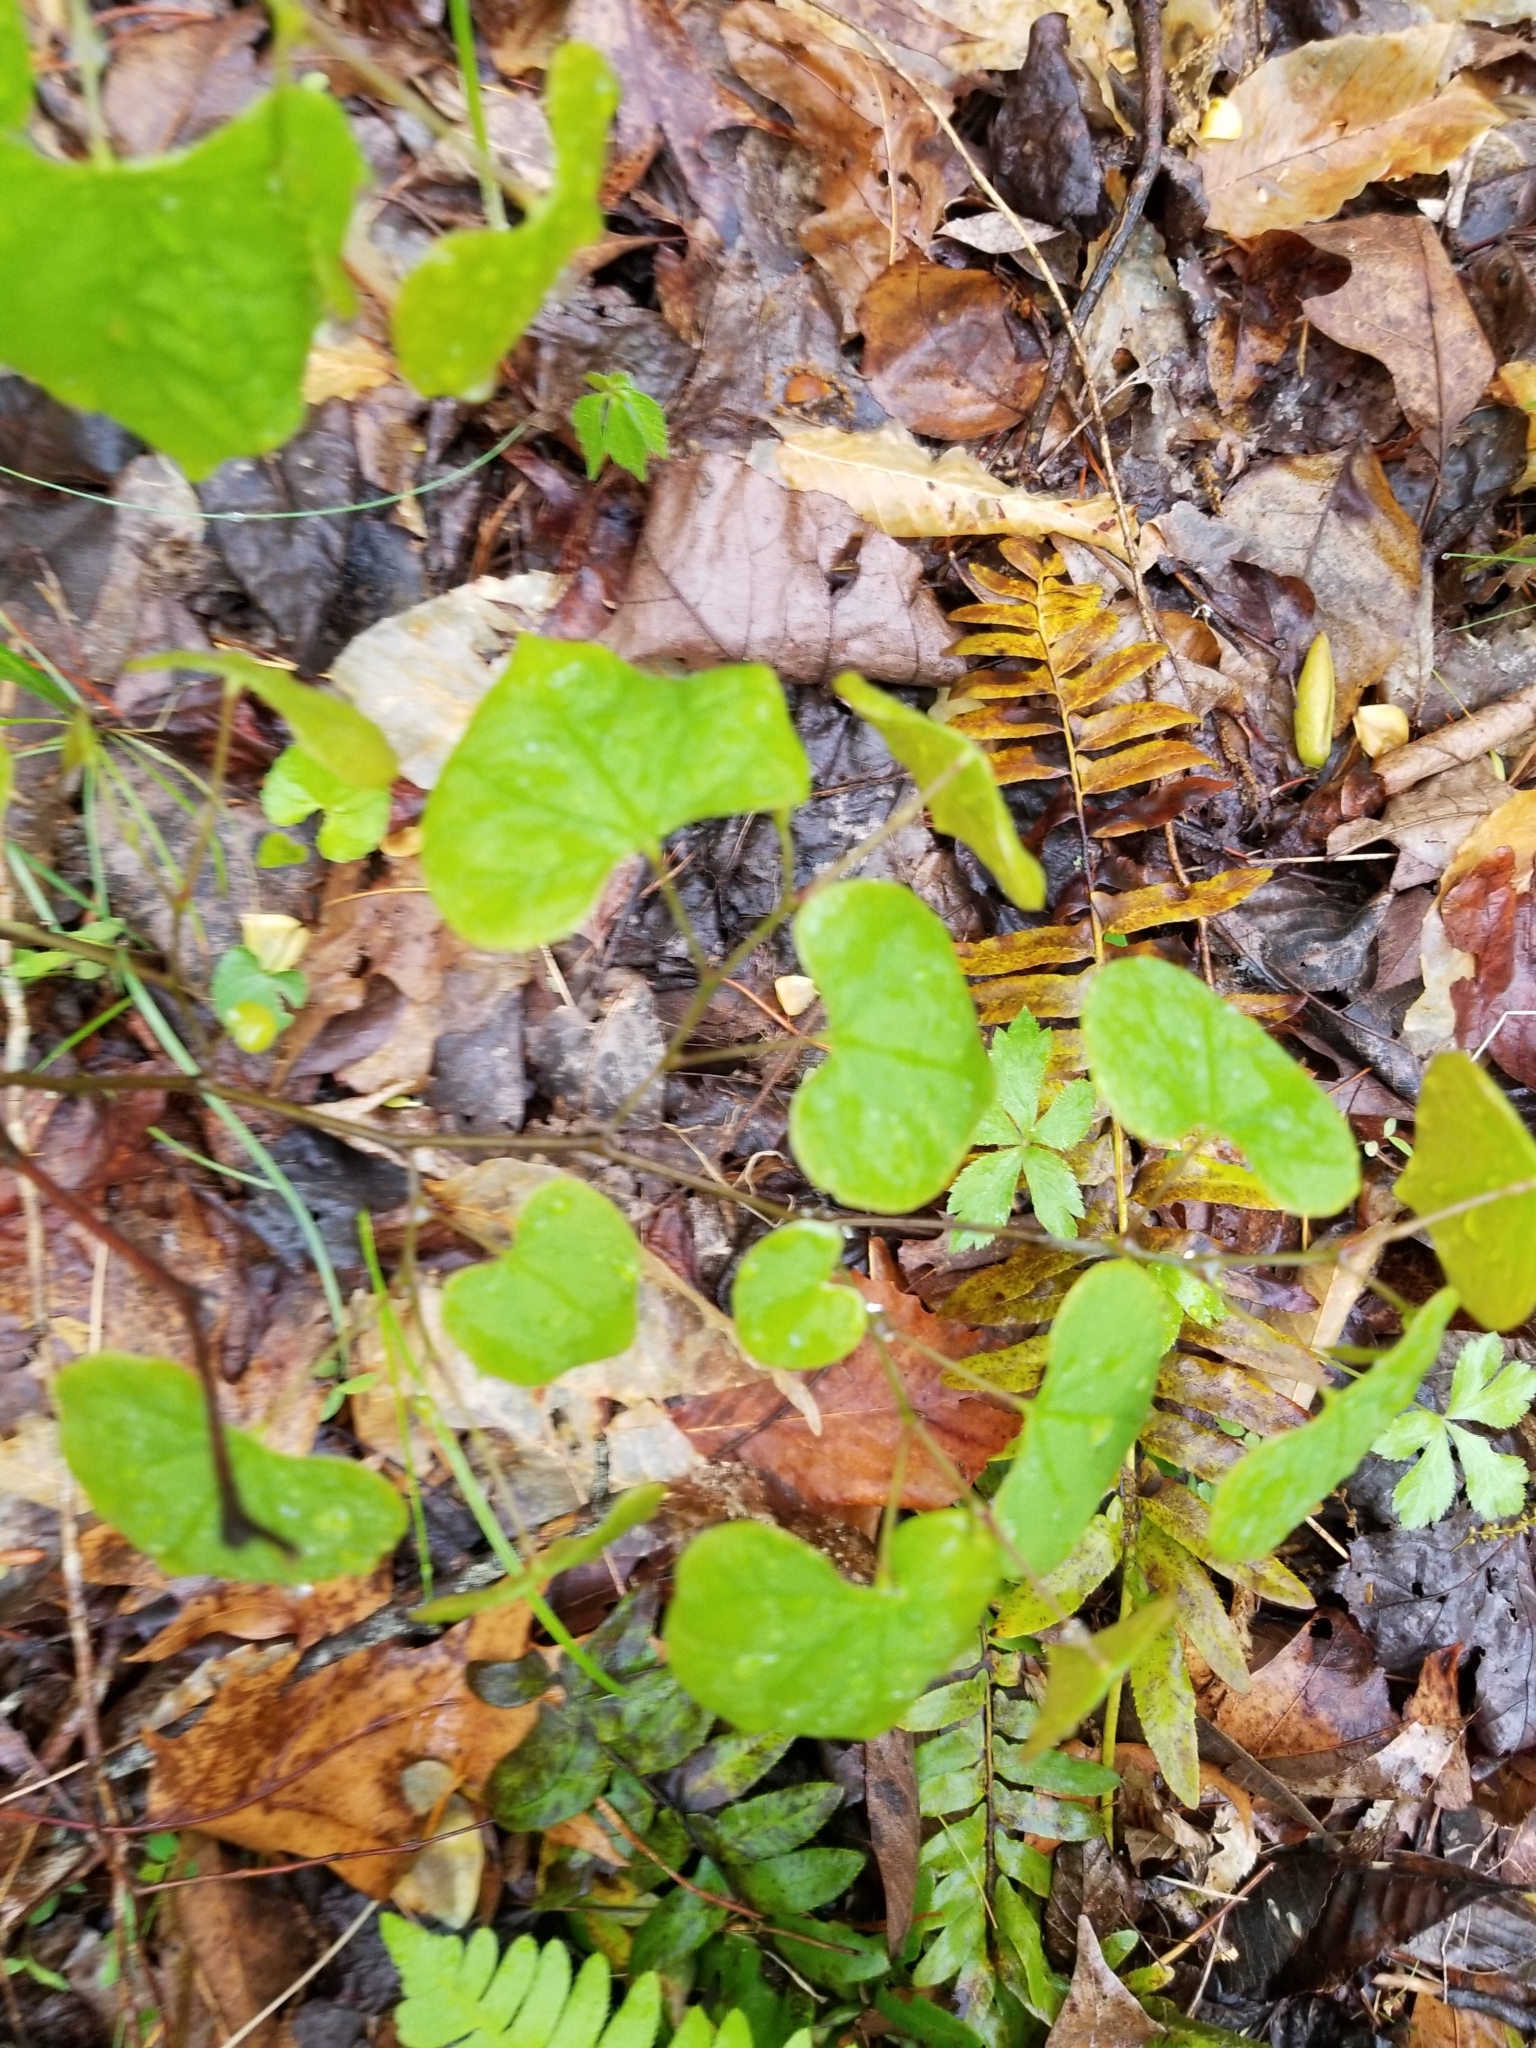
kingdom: Plantae
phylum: Tracheophyta
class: Magnoliopsida
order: Fabales
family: Fabaceae
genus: Cercis
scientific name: Cercis canadensis
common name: Eastern redbud
